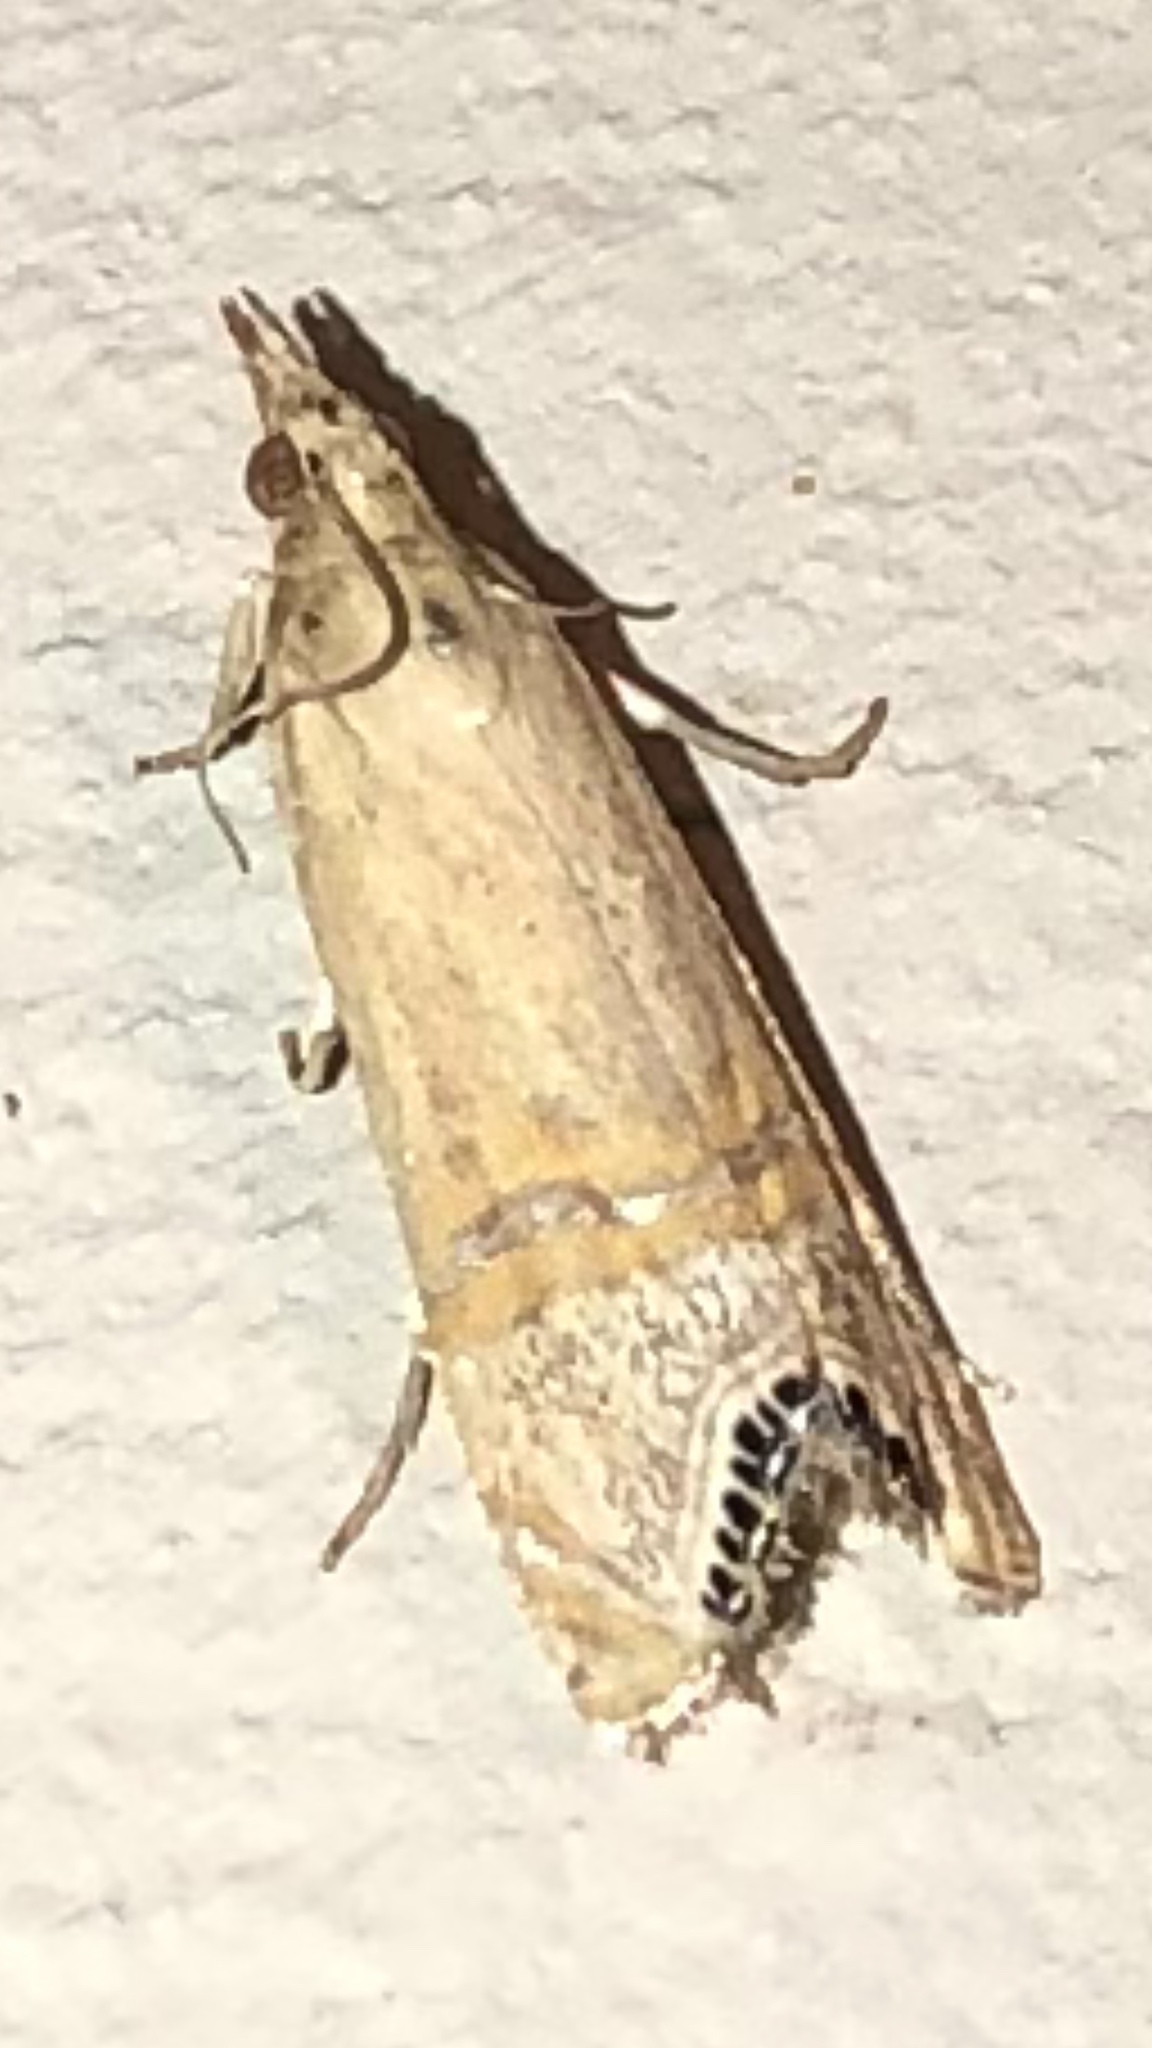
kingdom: Animalia
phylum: Arthropoda
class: Insecta
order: Lepidoptera
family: Crambidae
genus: Euchromius
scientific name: Euchromius ocellea
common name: Necklace veneer moth
